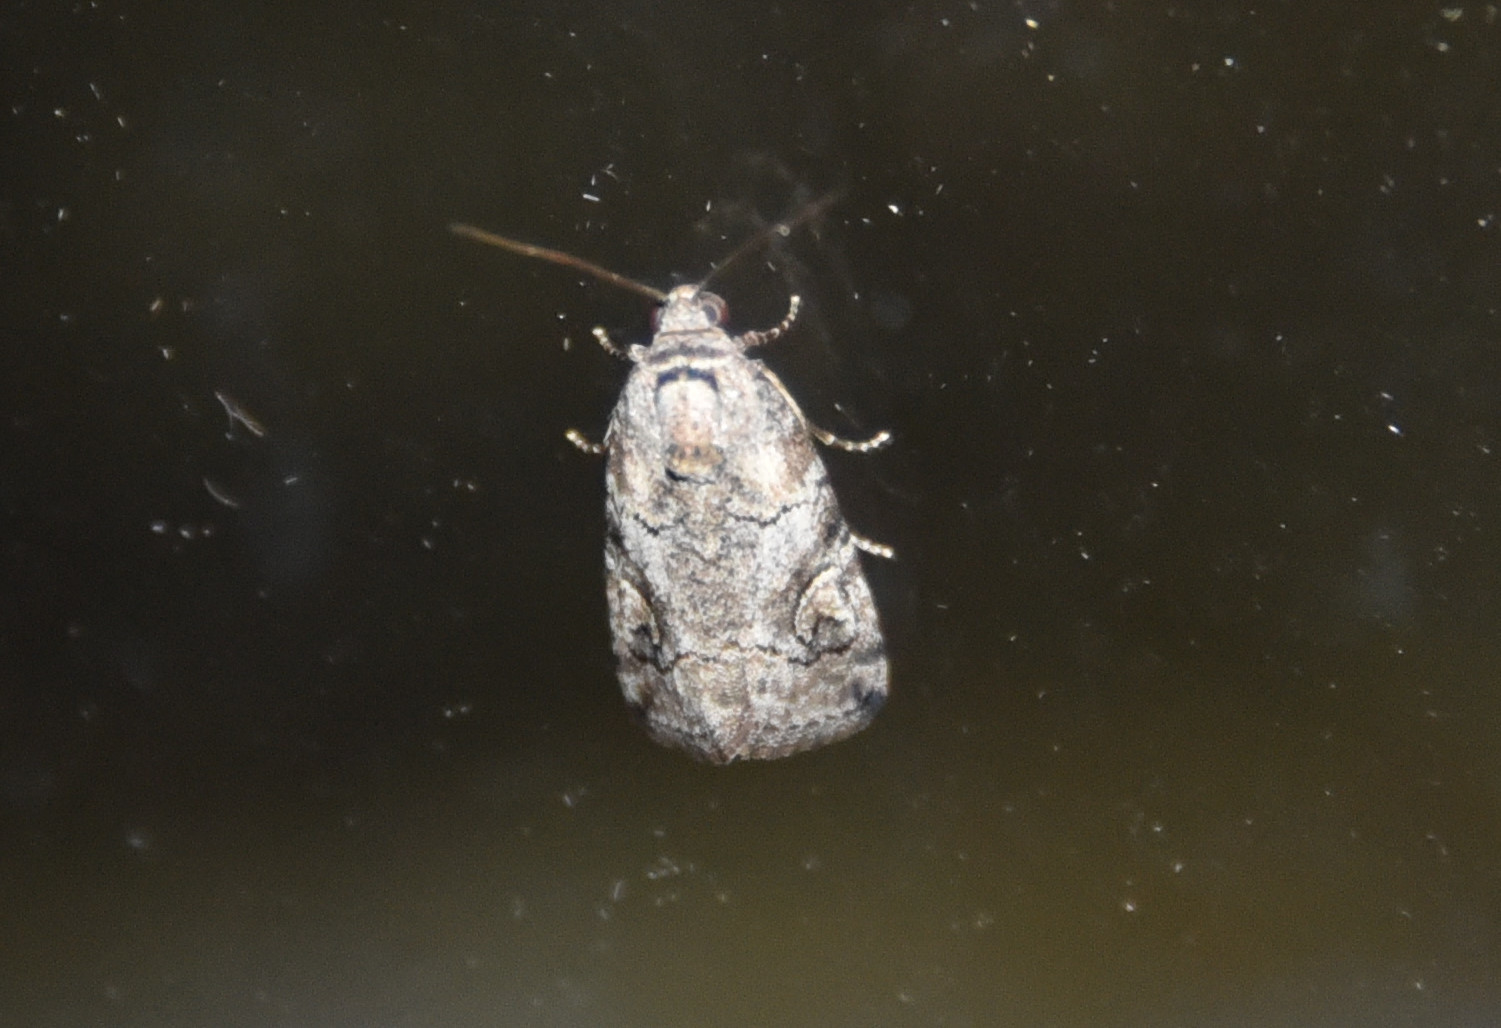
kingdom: Animalia
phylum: Arthropoda
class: Insecta
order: Lepidoptera
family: Nolidae
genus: Garella
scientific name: Garella nilotica
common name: Black-olive caterpillar moth
